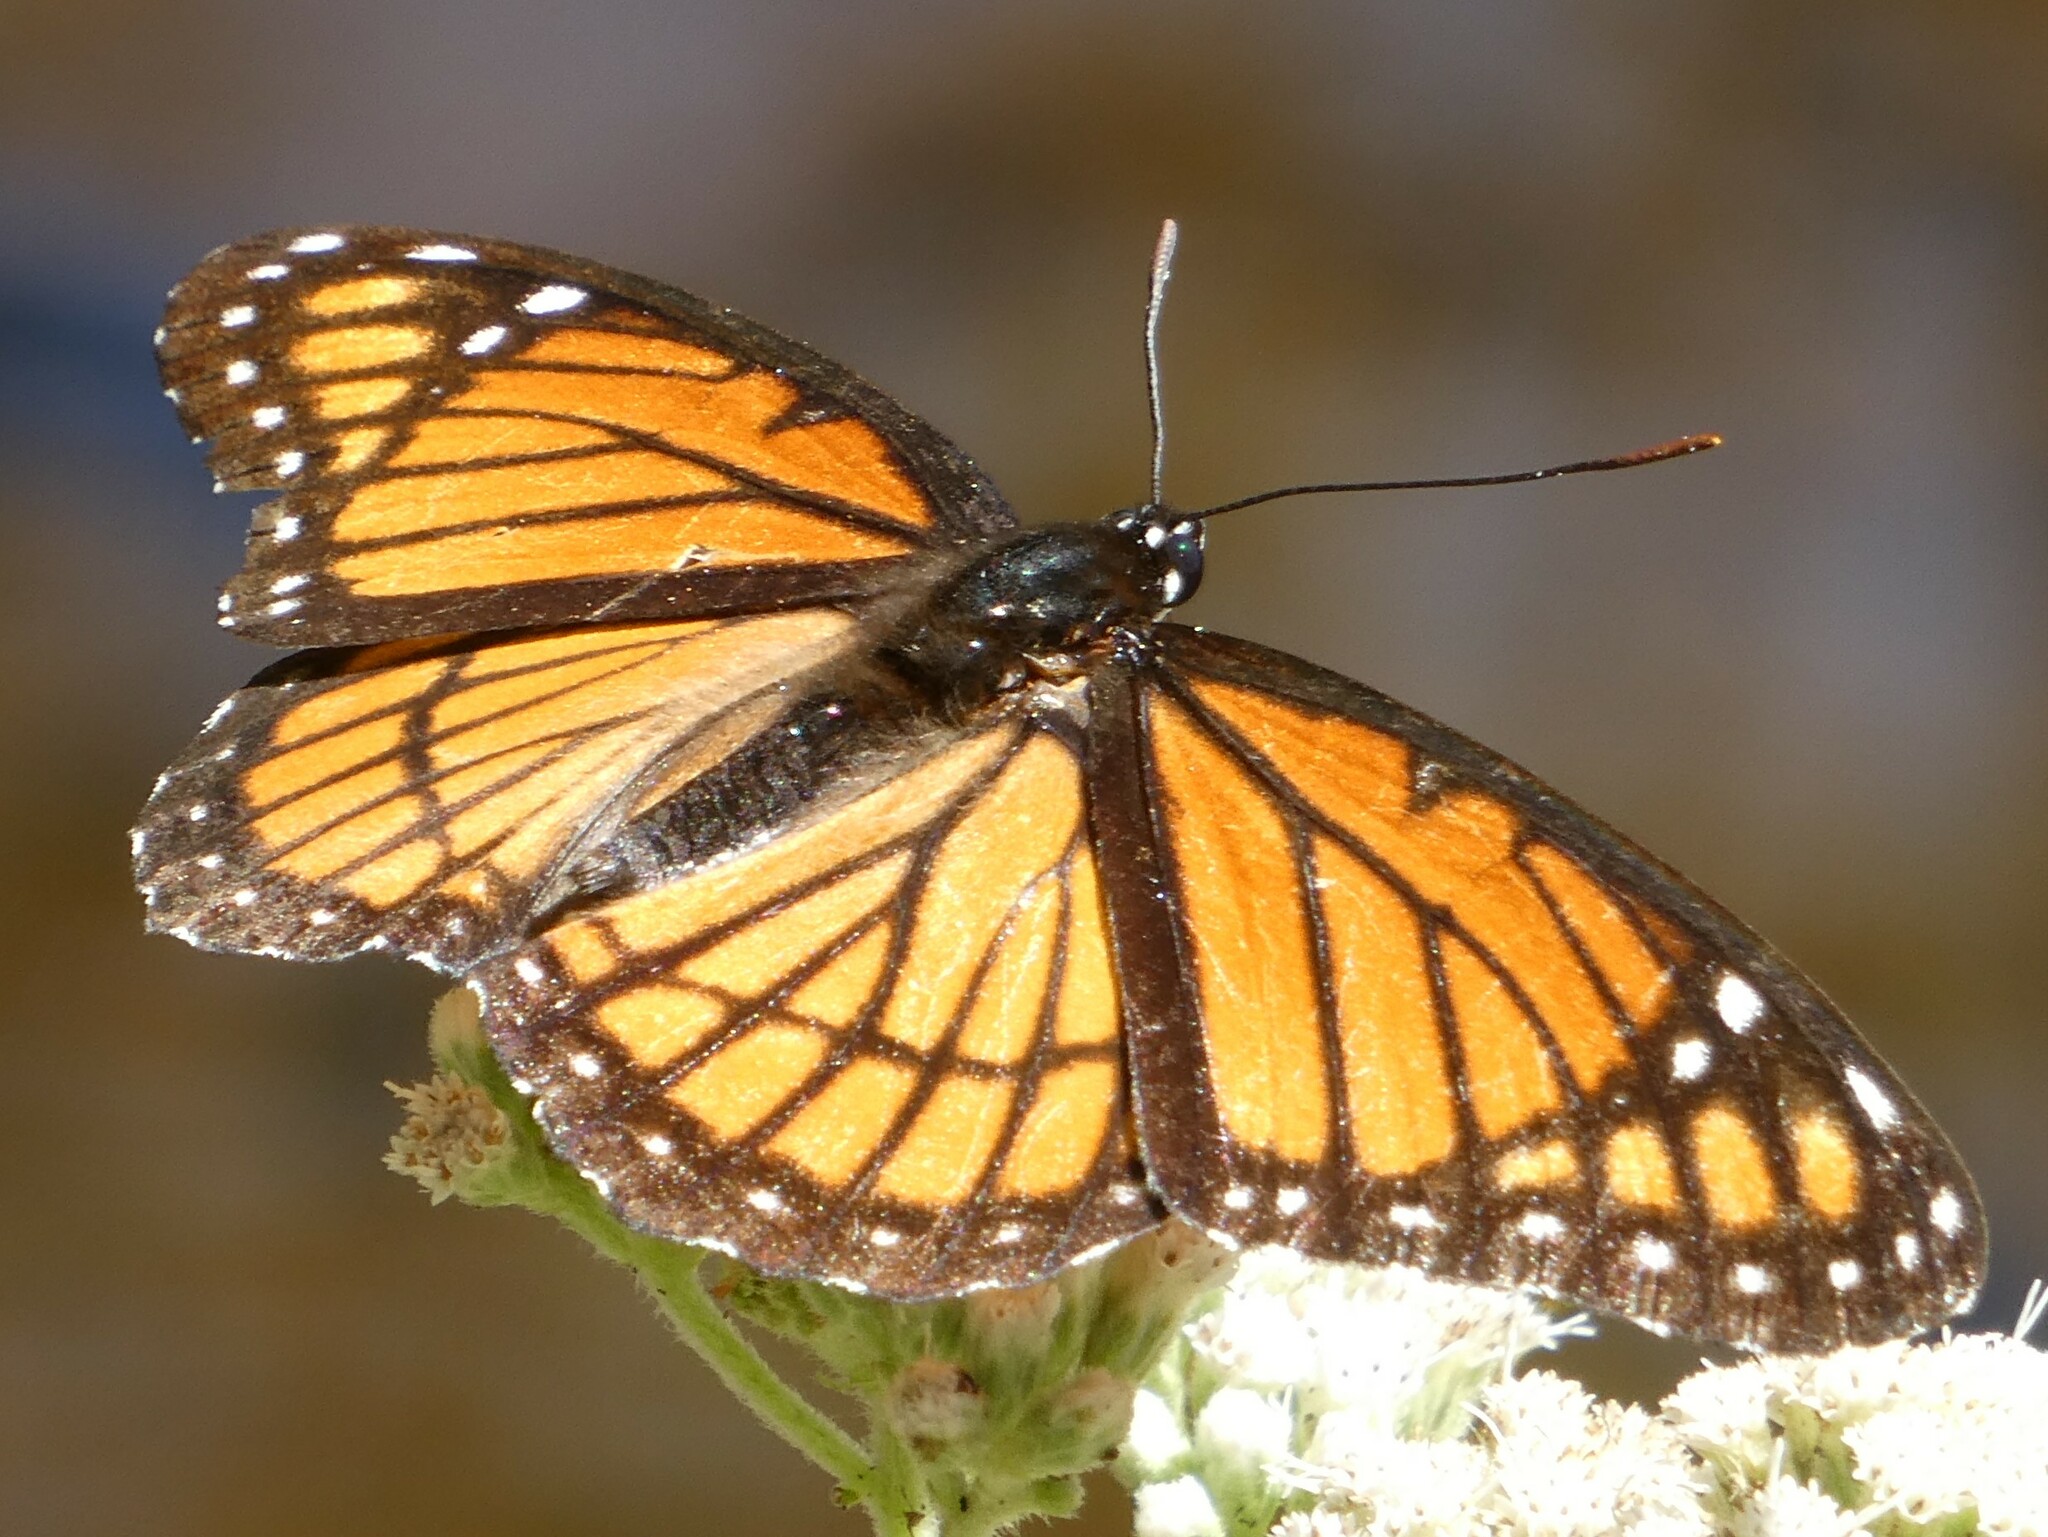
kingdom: Animalia
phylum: Arthropoda
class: Insecta
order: Lepidoptera
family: Nymphalidae
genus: Limenitis
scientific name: Limenitis archippus
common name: Viceroy
